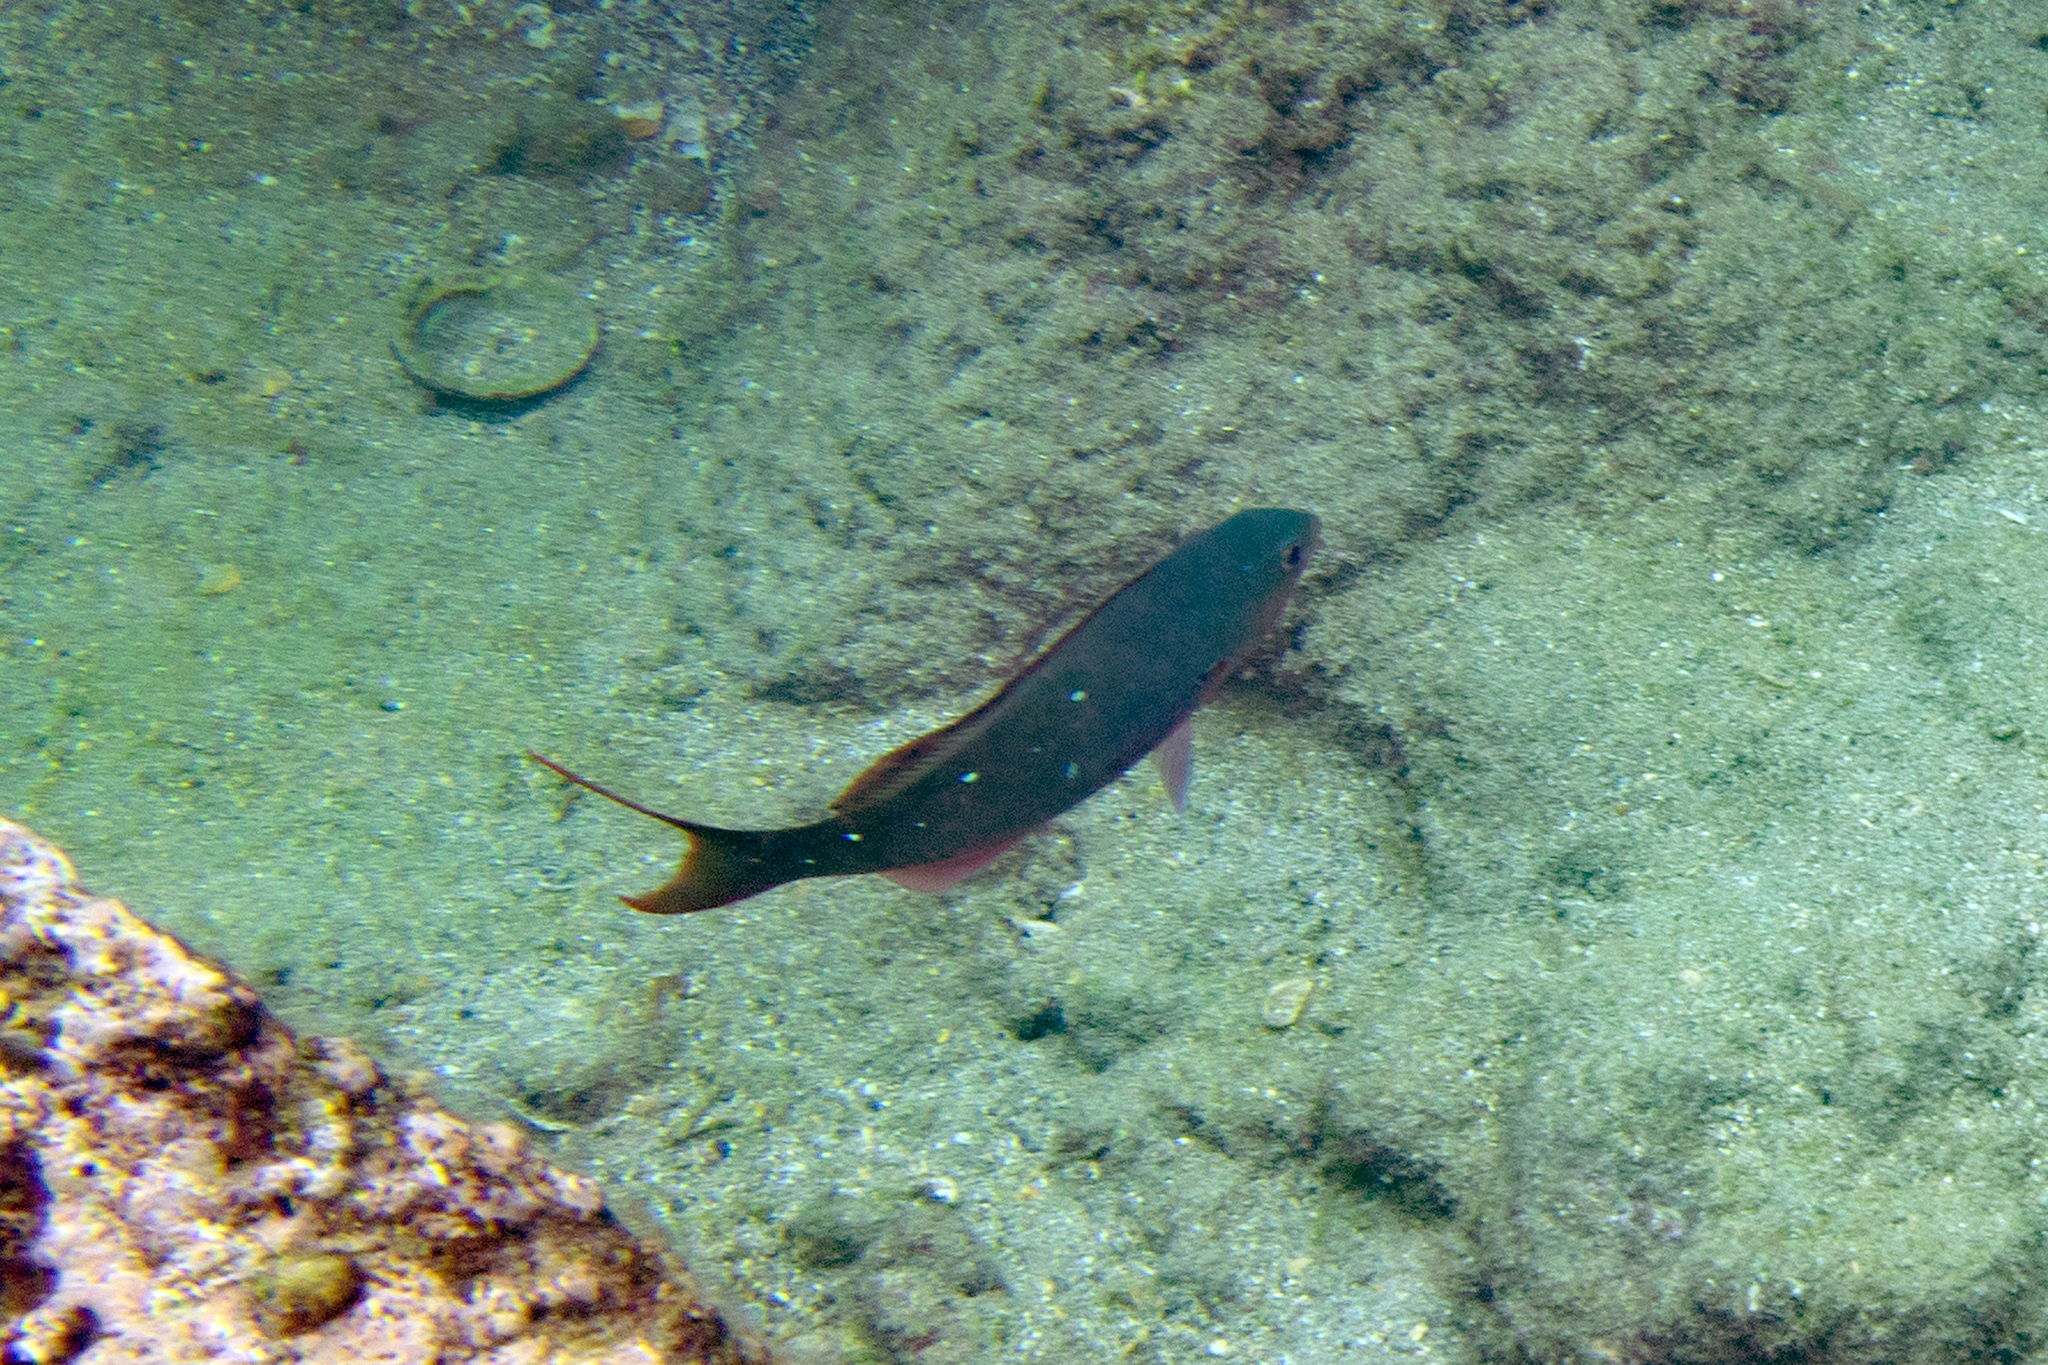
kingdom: Animalia
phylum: Chordata
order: Perciformes
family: Serranidae
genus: Paranthias
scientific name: Paranthias colonus
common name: Pacific creole-fish
